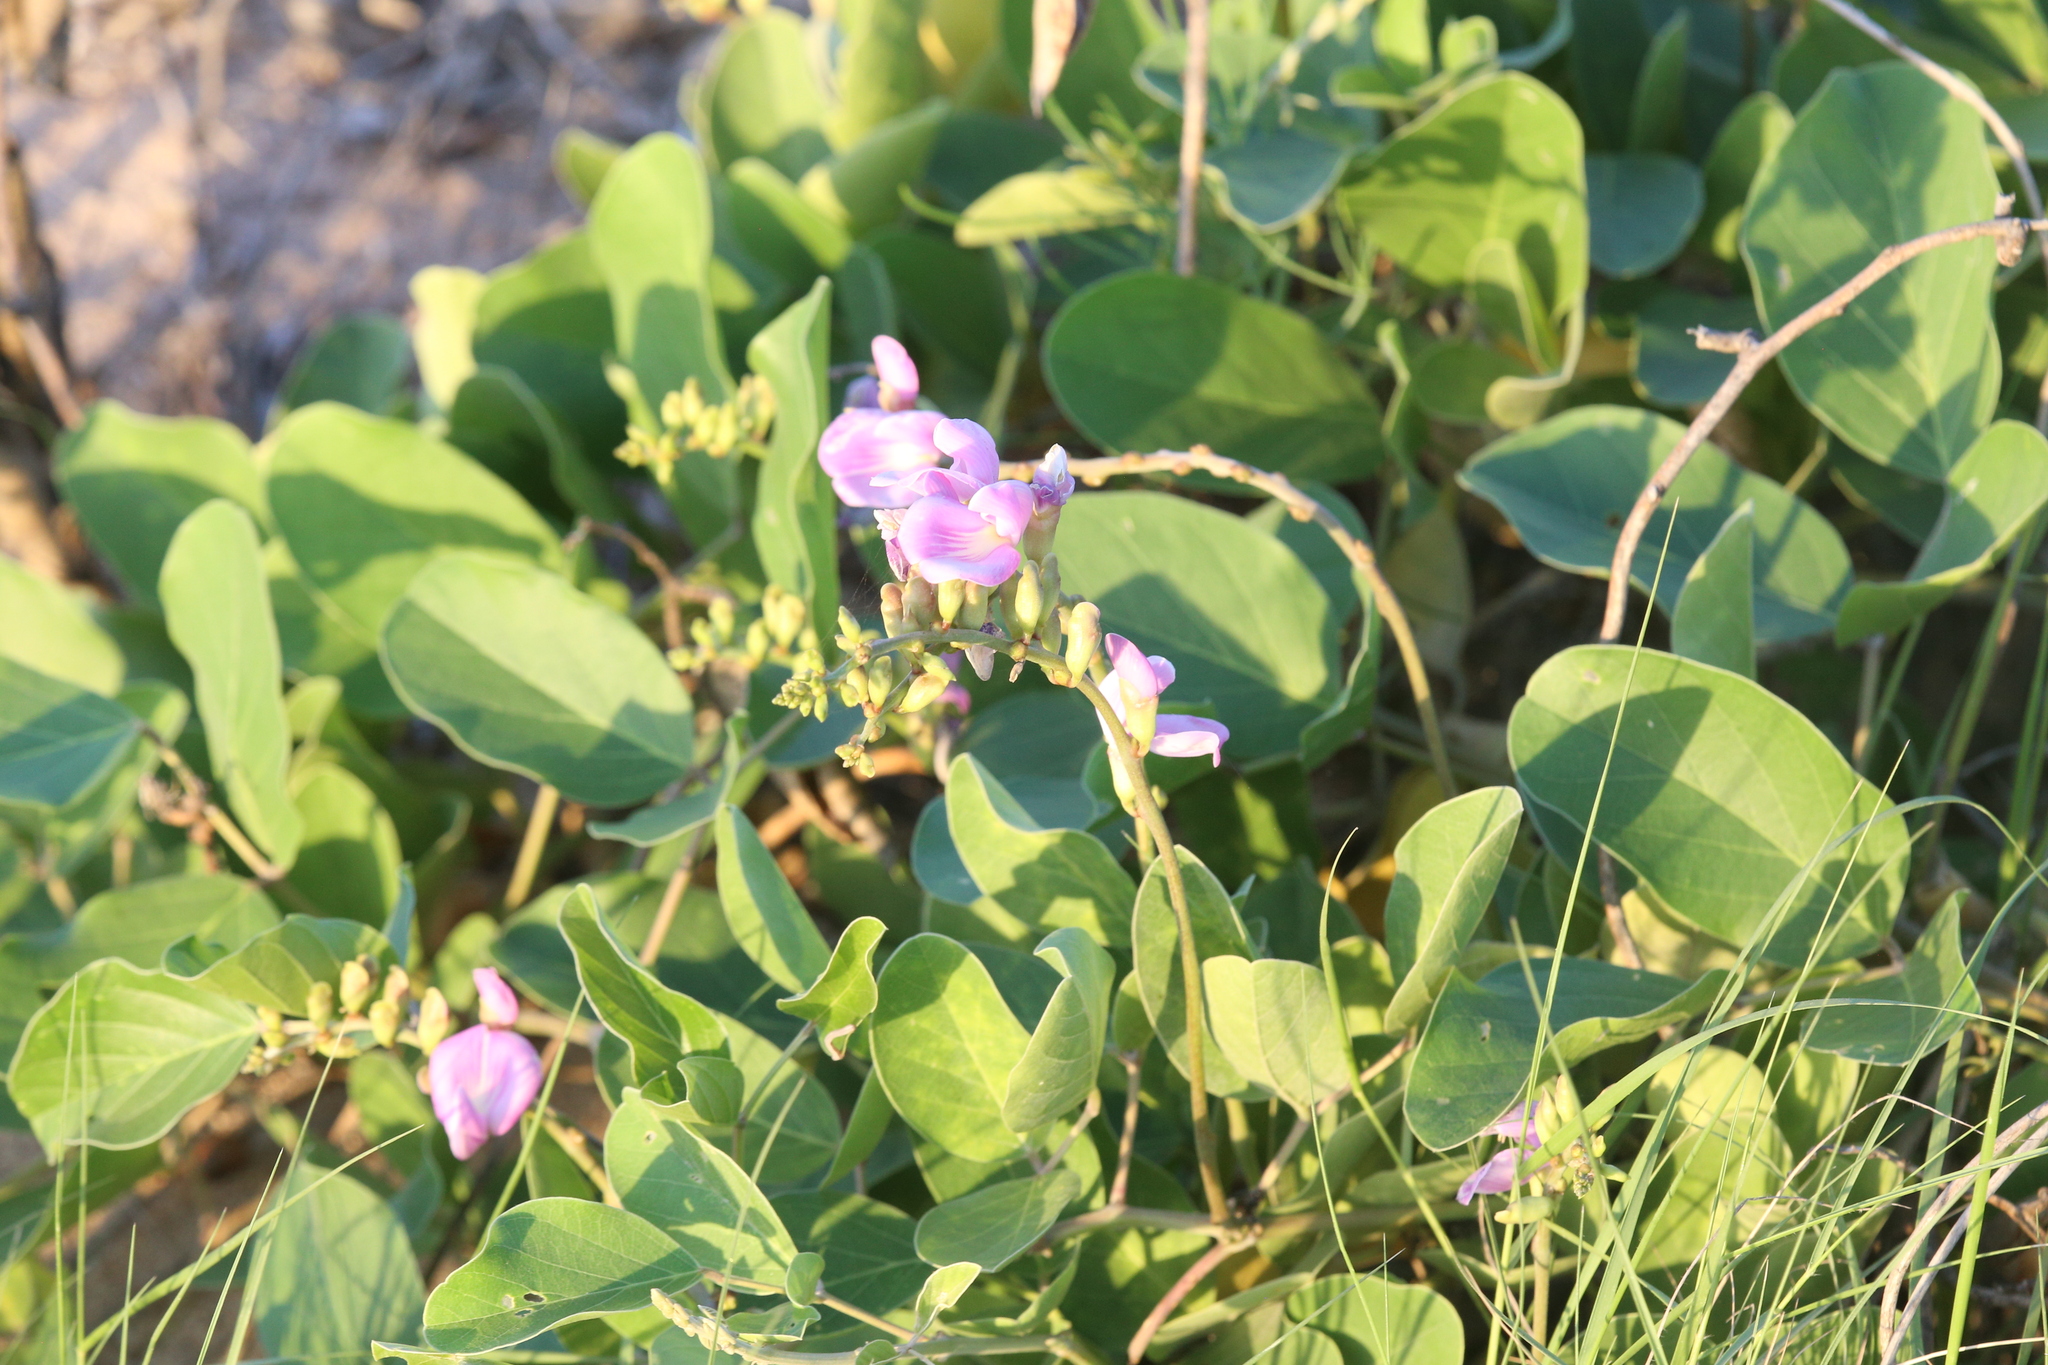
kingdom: Plantae
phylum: Tracheophyta
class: Magnoliopsida
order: Fabales
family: Fabaceae
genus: Canavalia
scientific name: Canavalia rosea
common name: Beach-bean
